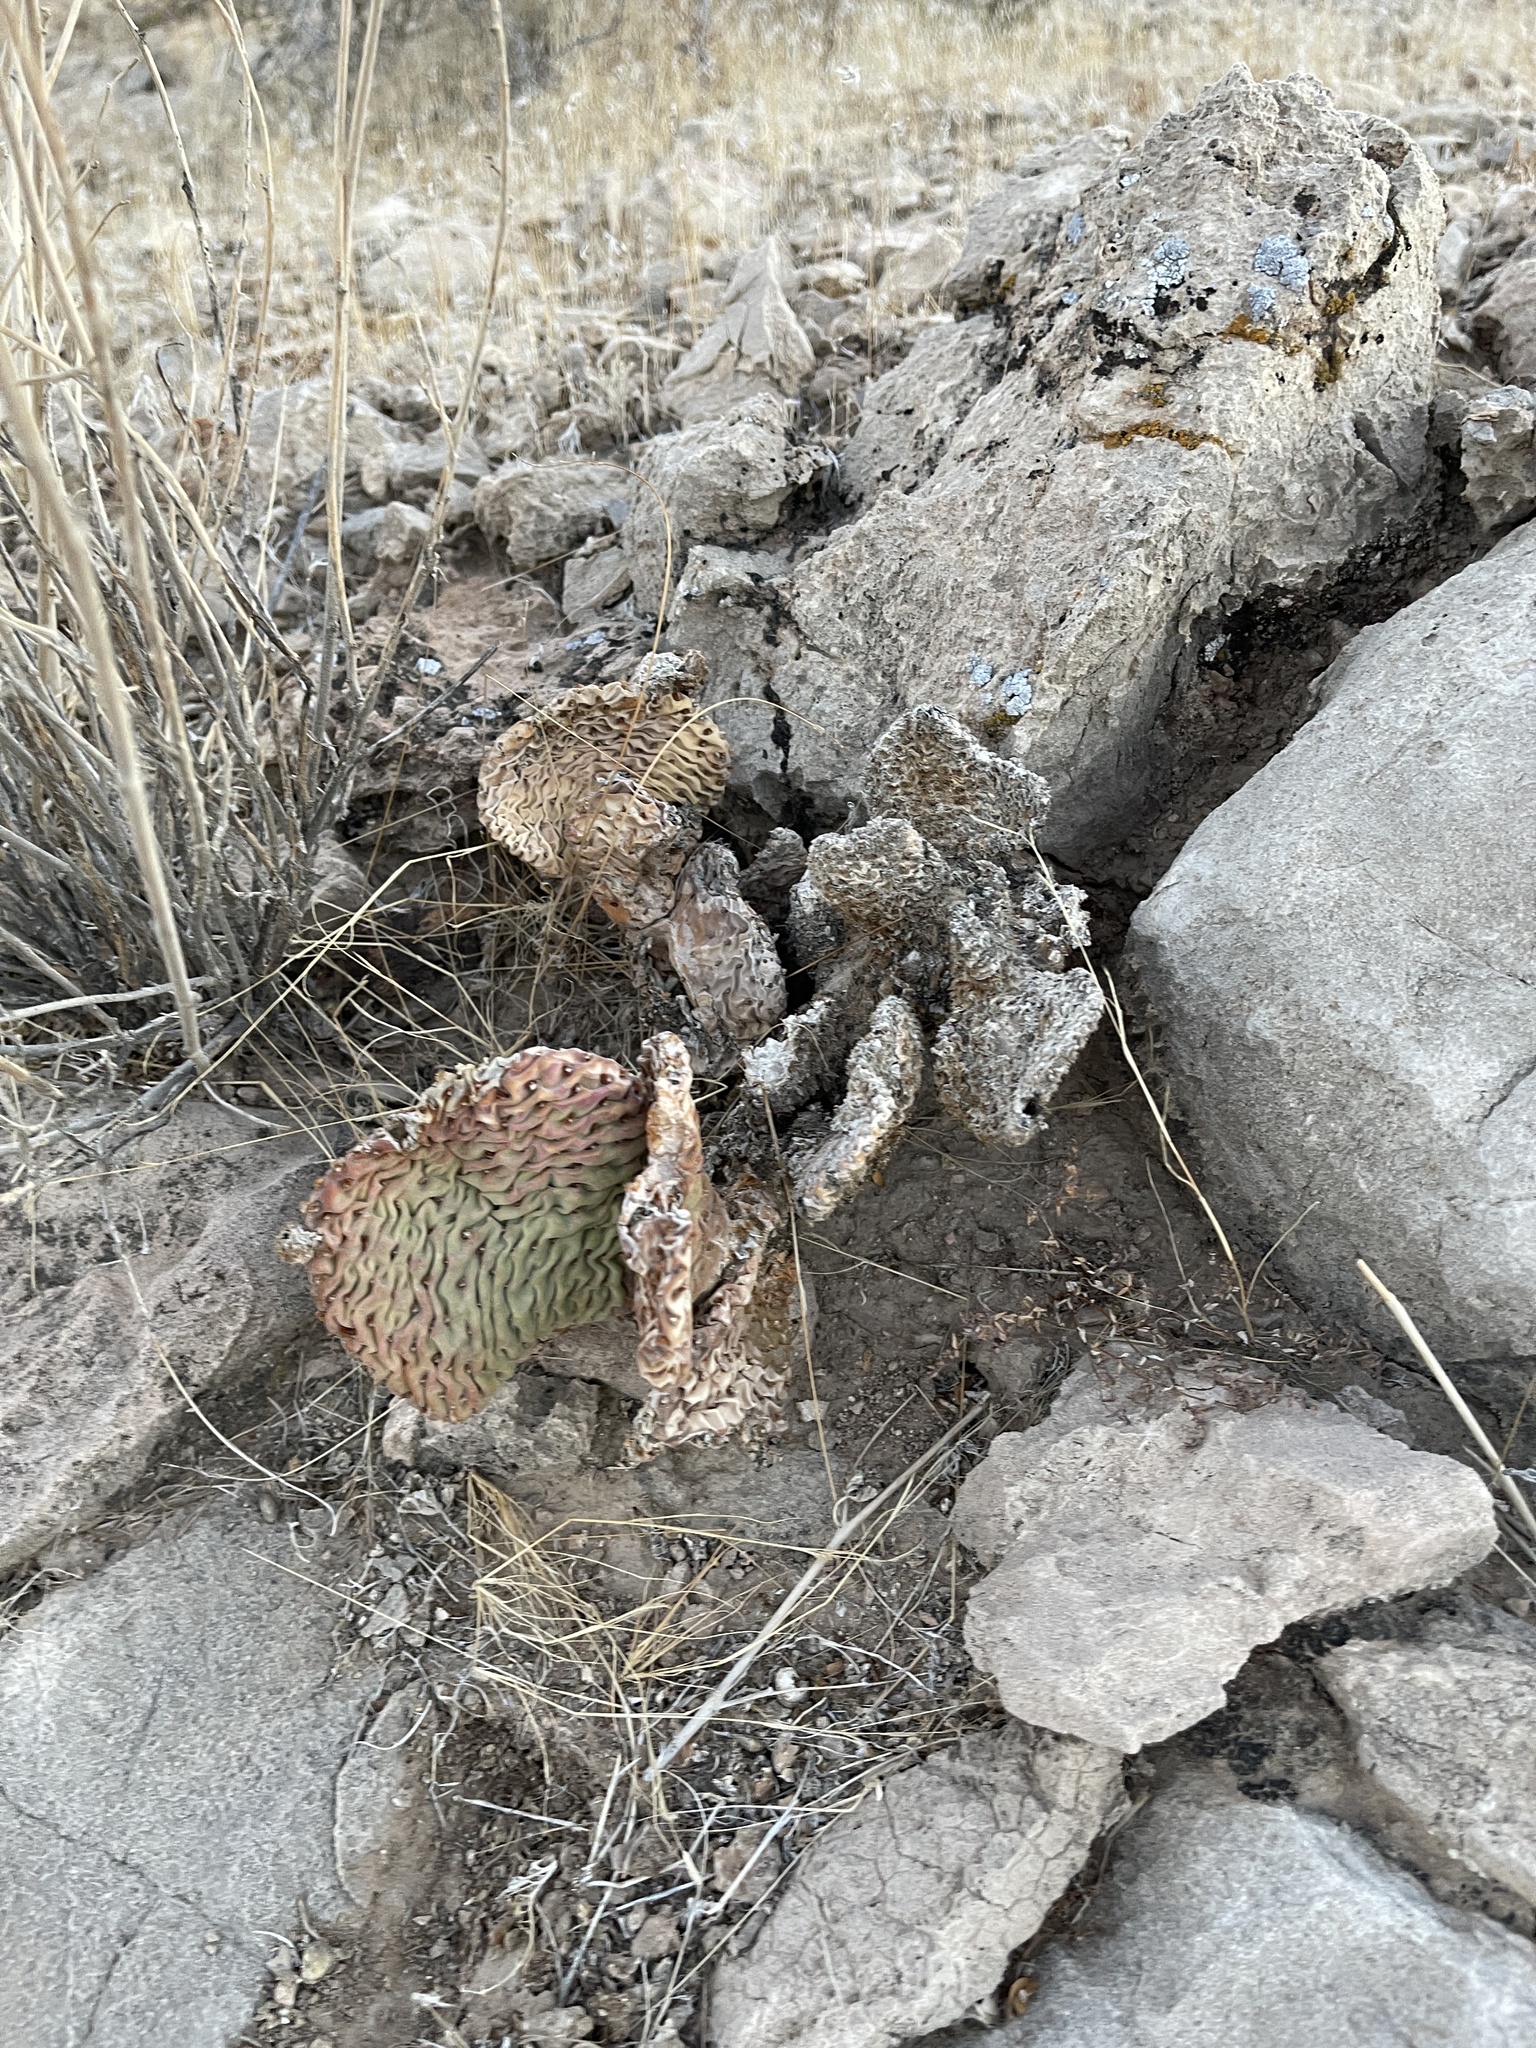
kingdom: Plantae
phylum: Tracheophyta
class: Magnoliopsida
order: Caryophyllales
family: Cactaceae
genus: Opuntia
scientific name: Opuntia basilaris
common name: Beavertail prickly-pear
